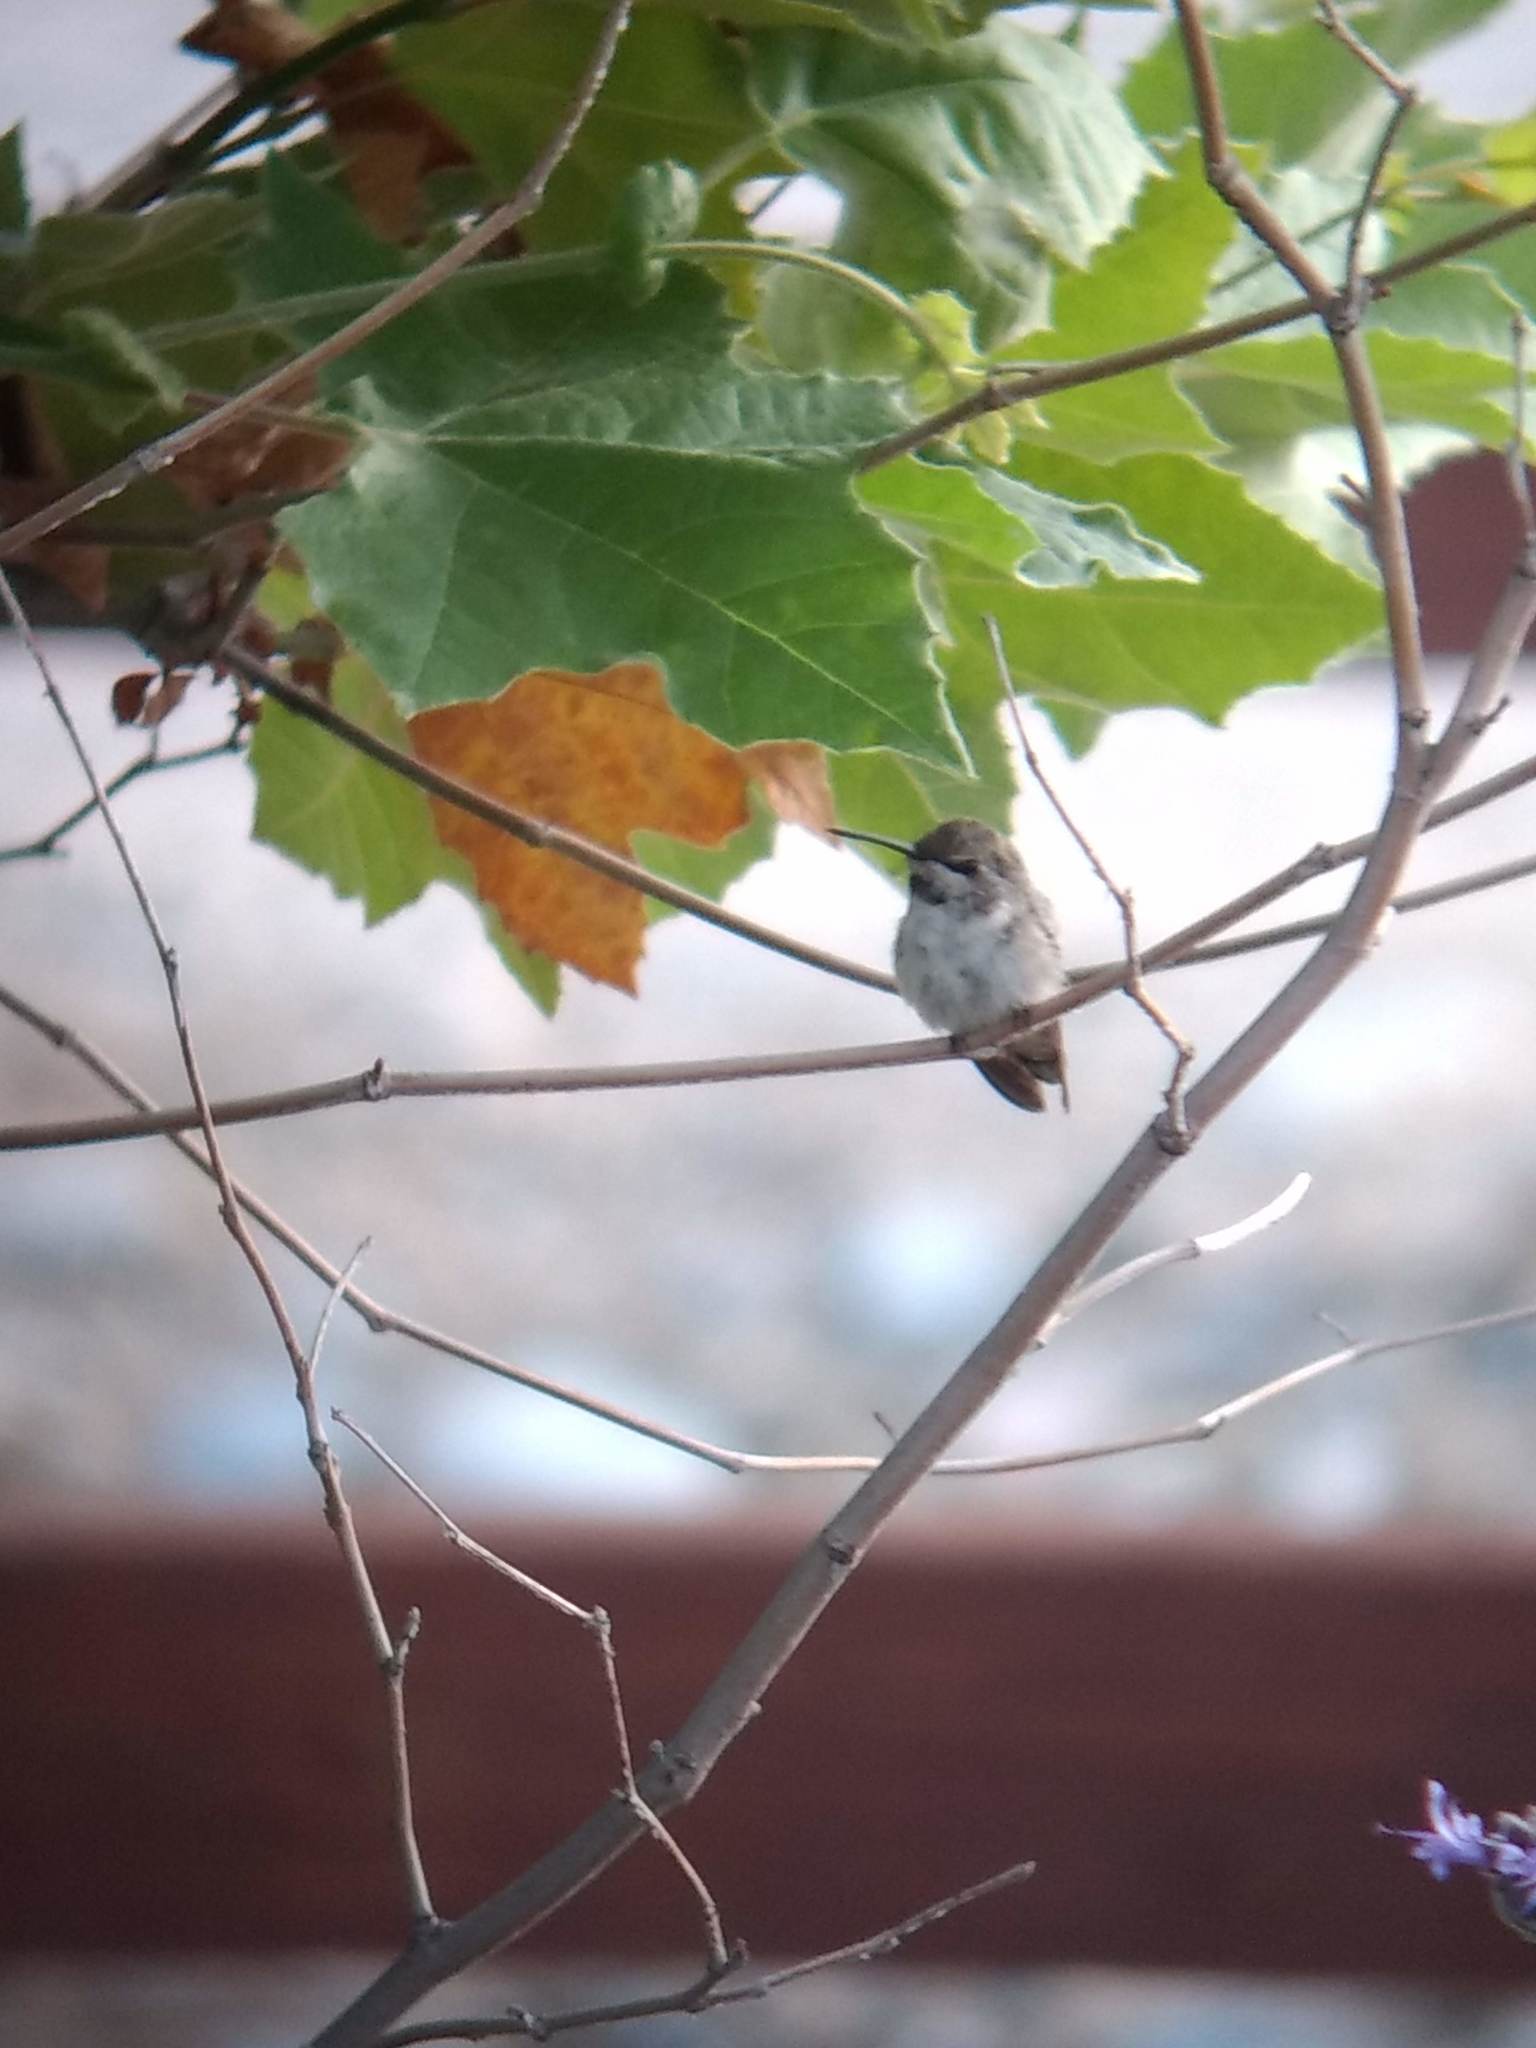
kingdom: Animalia
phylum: Chordata
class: Aves
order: Apodiformes
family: Trochilidae
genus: Calypte
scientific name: Calypte costae
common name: Costa's hummingbird
